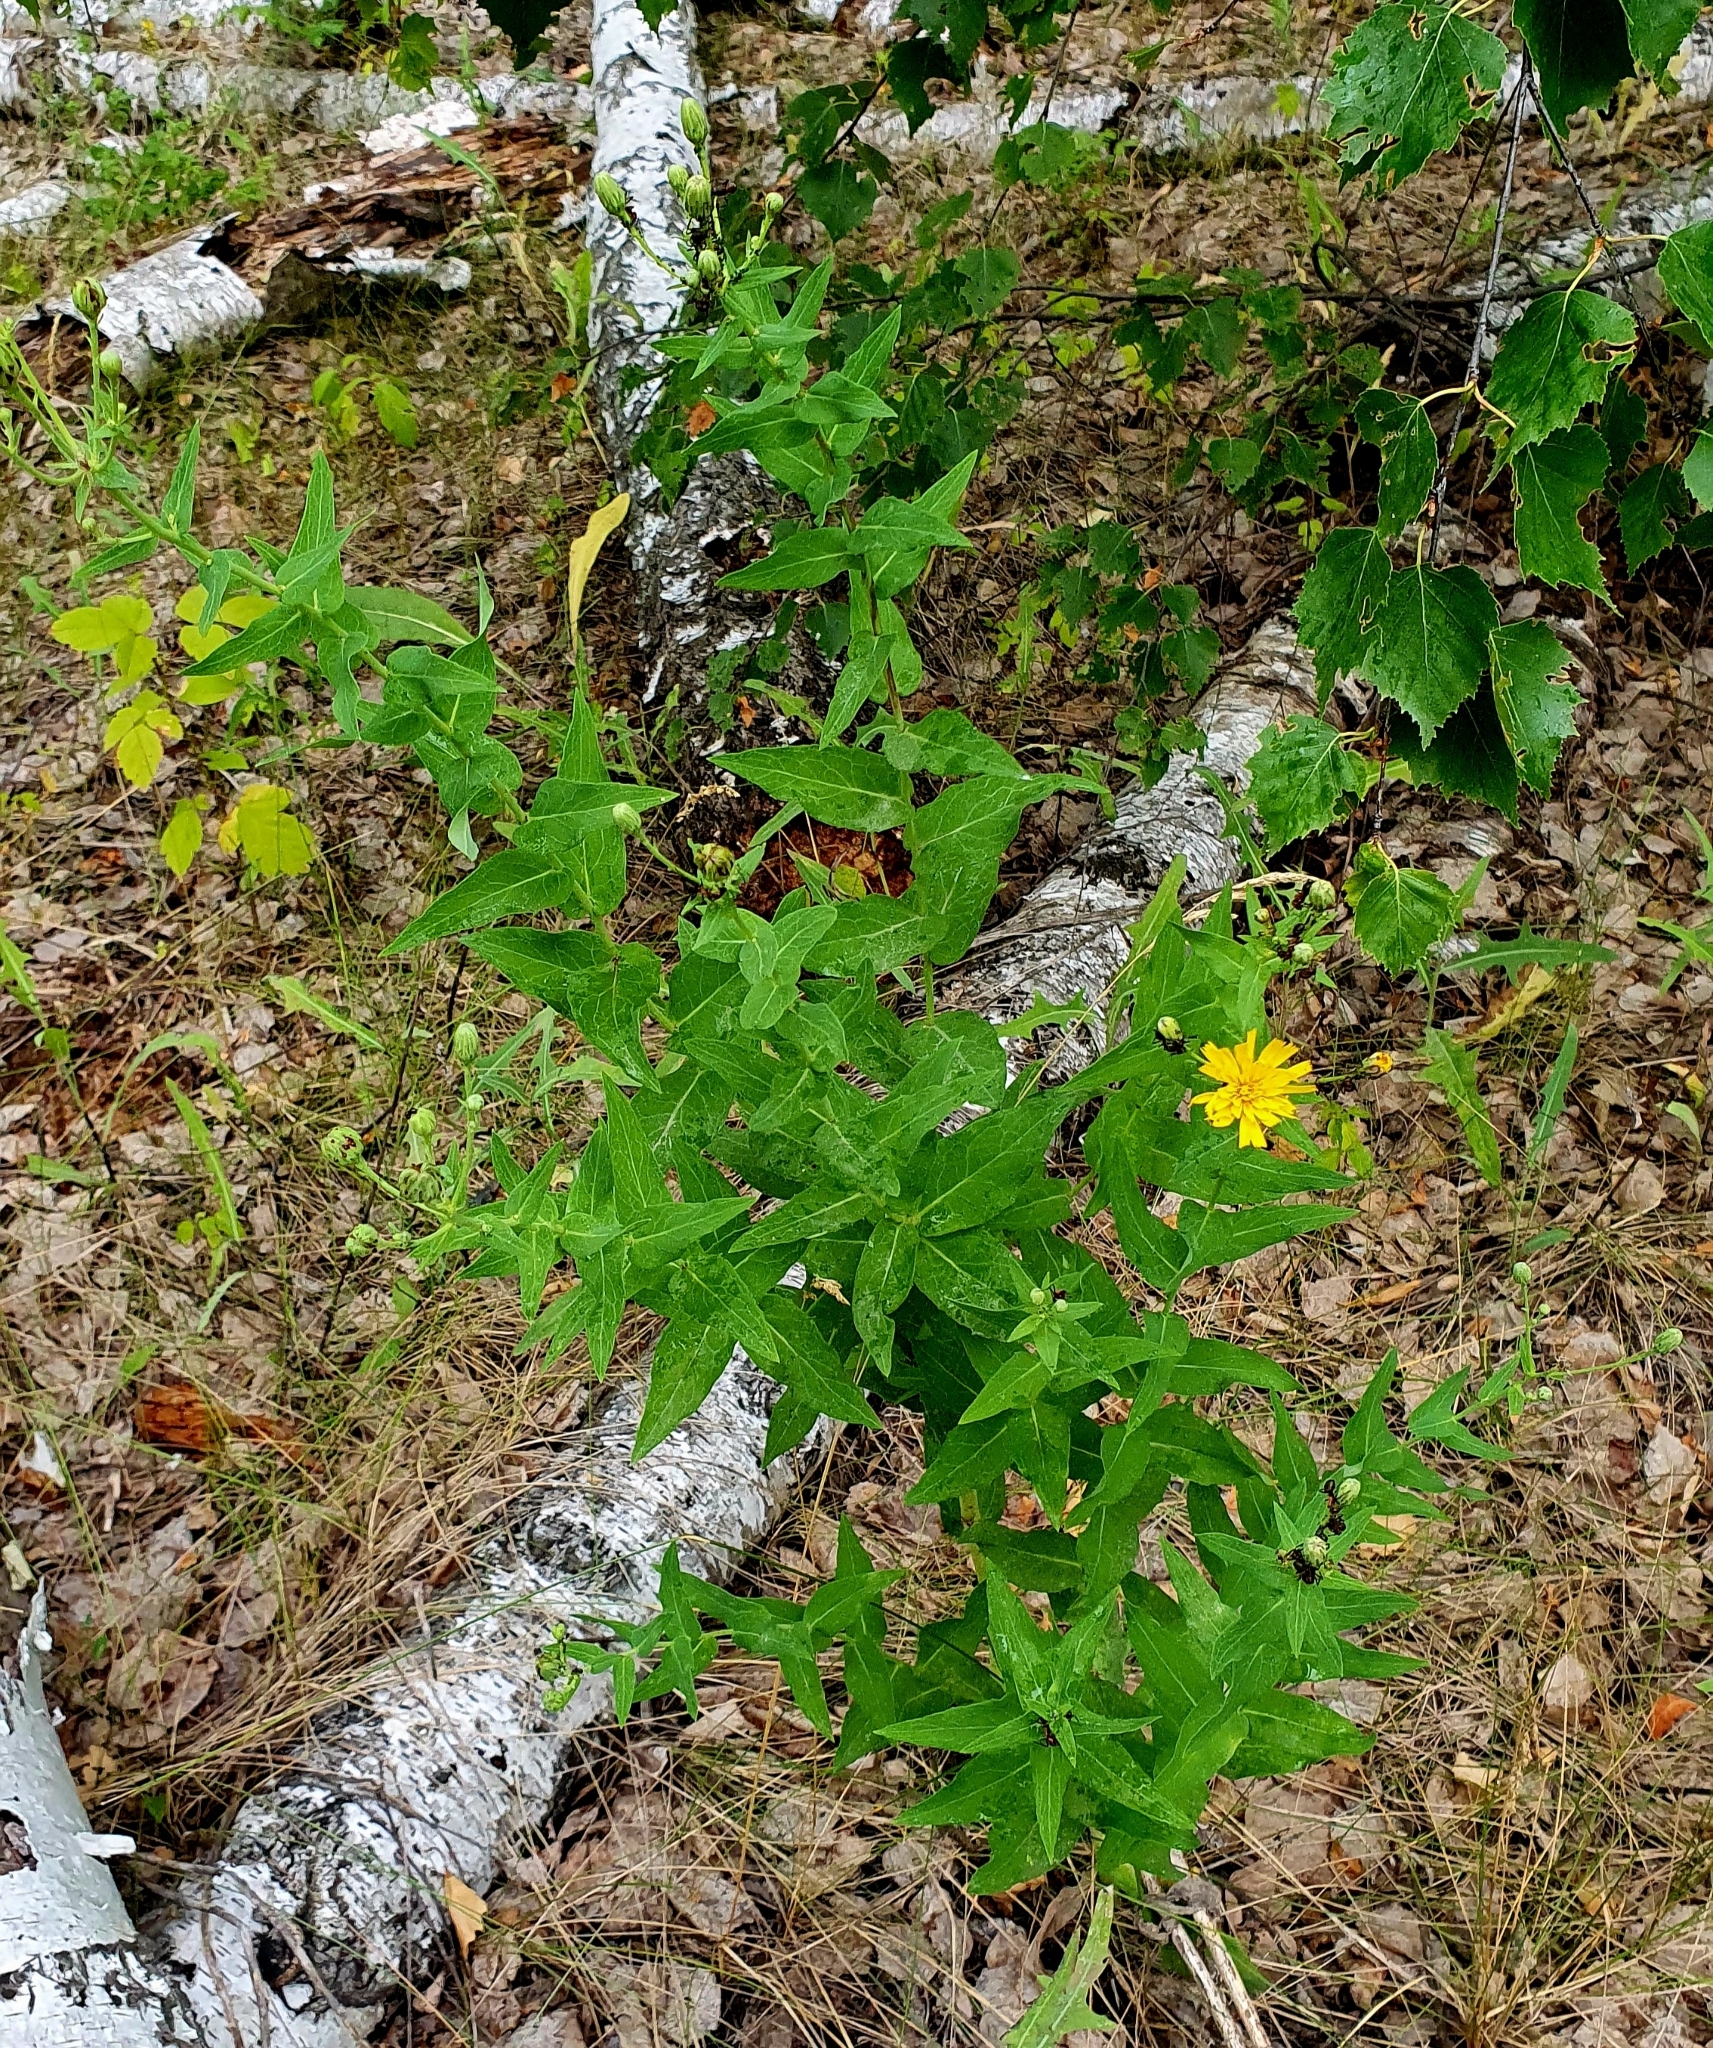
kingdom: Plantae
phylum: Tracheophyta
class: Magnoliopsida
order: Asterales
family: Asteraceae
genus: Hieracium
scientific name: Hieracium umbellatum
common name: Northern hawkweed
